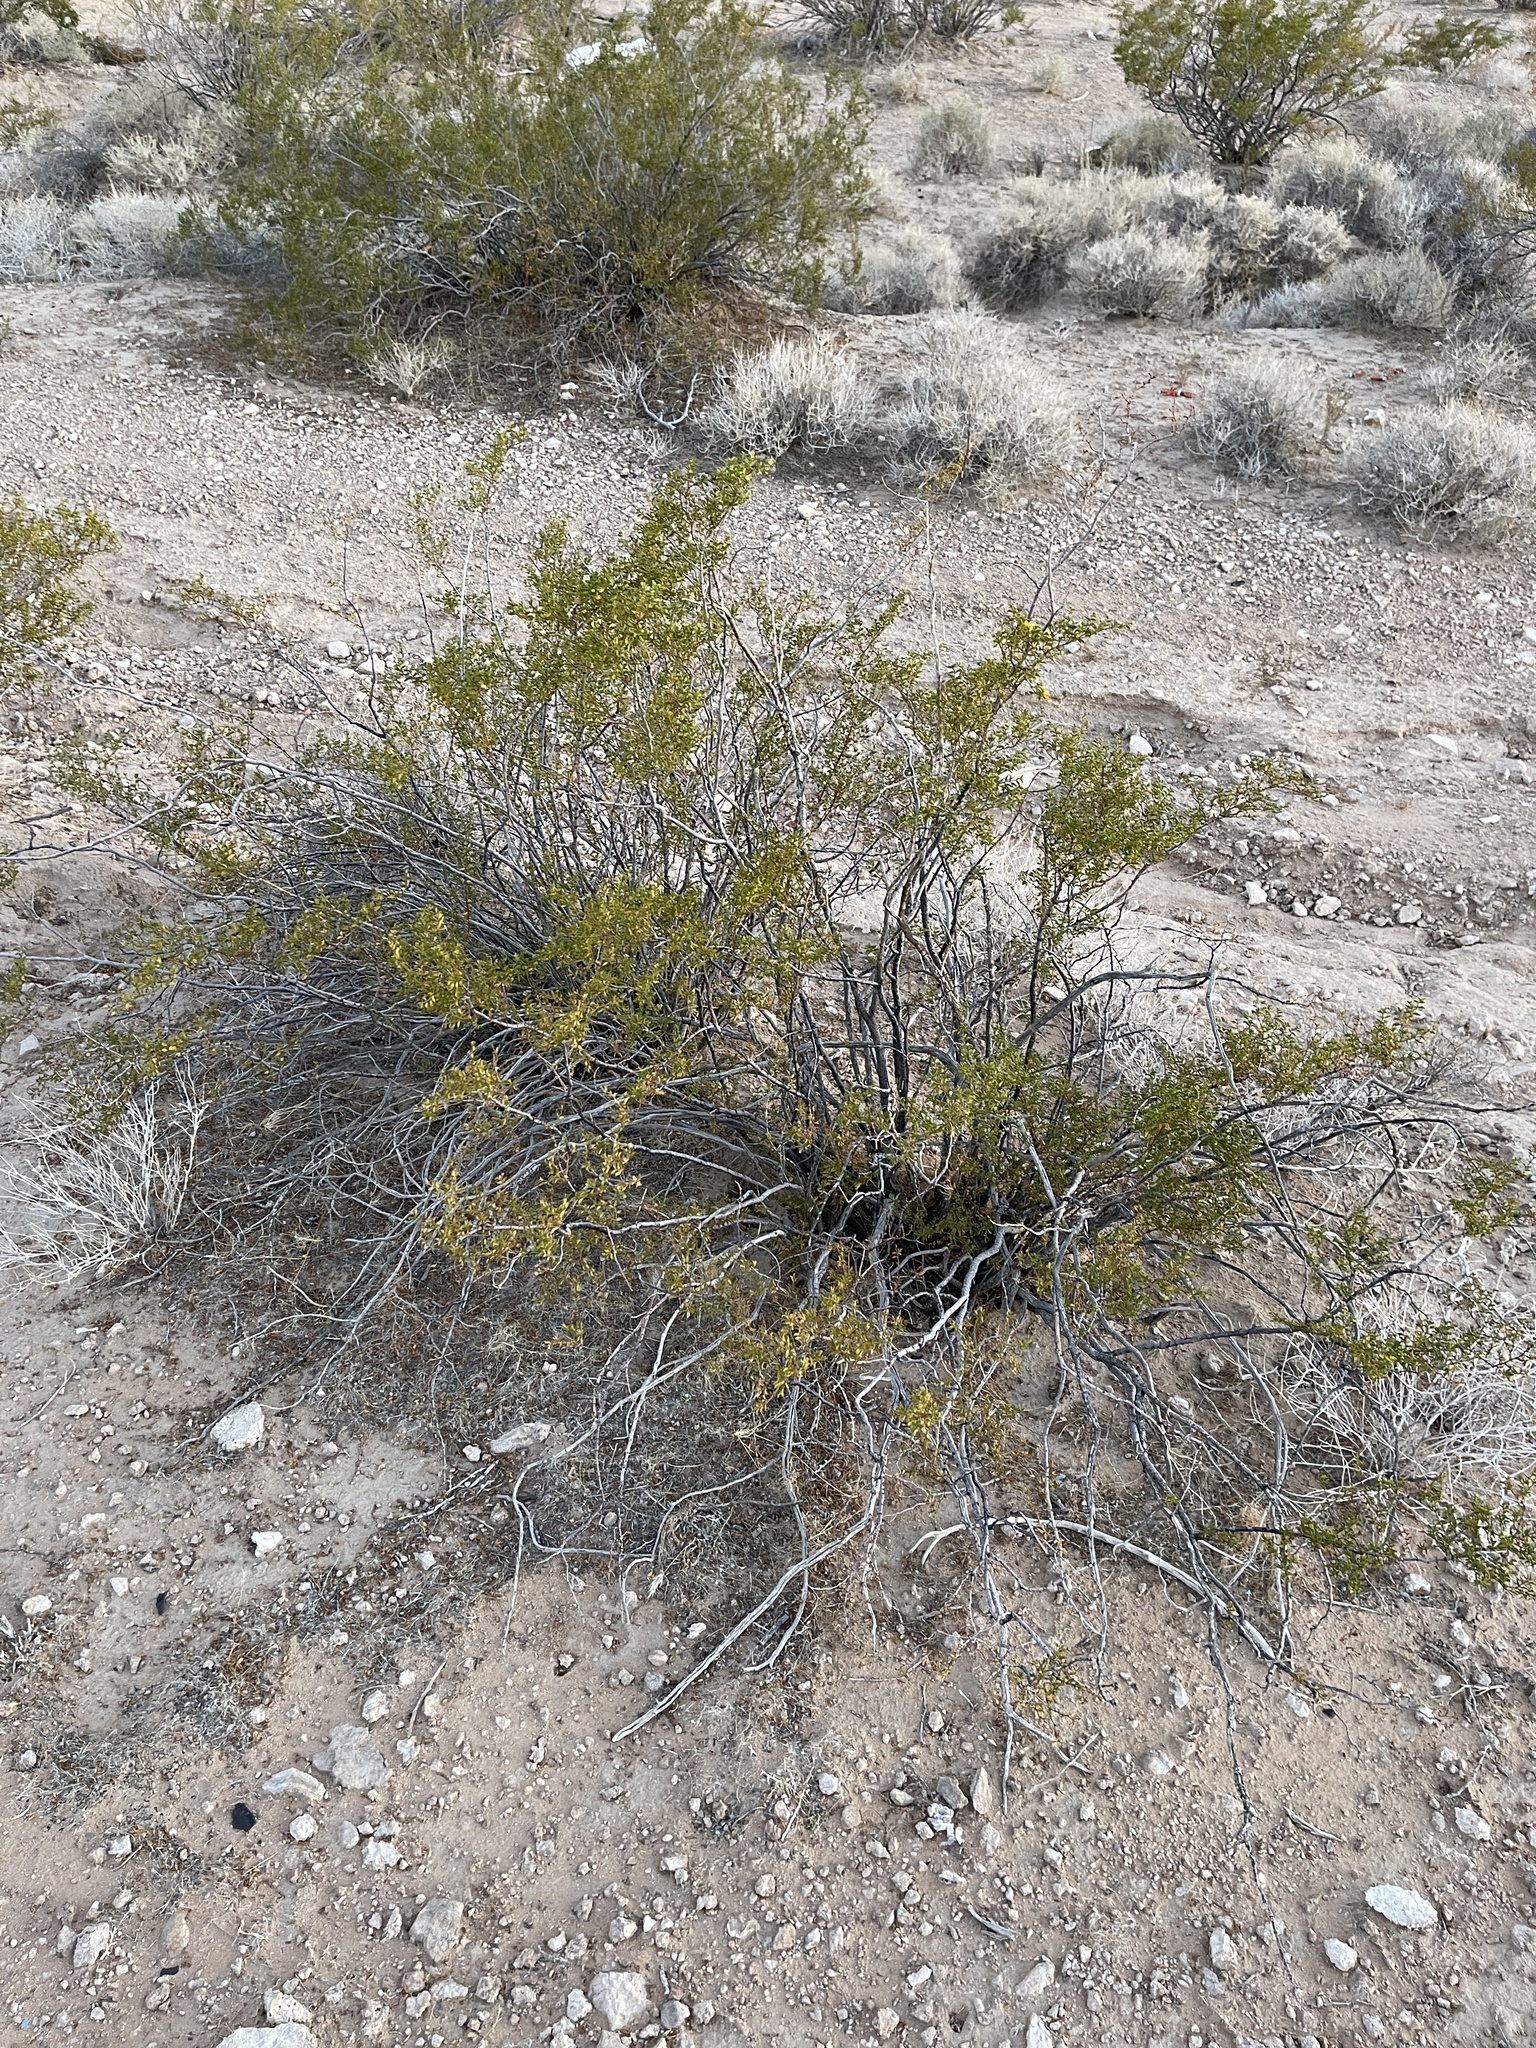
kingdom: Plantae
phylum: Tracheophyta
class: Magnoliopsida
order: Zygophyllales
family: Zygophyllaceae
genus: Larrea
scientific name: Larrea tridentata
